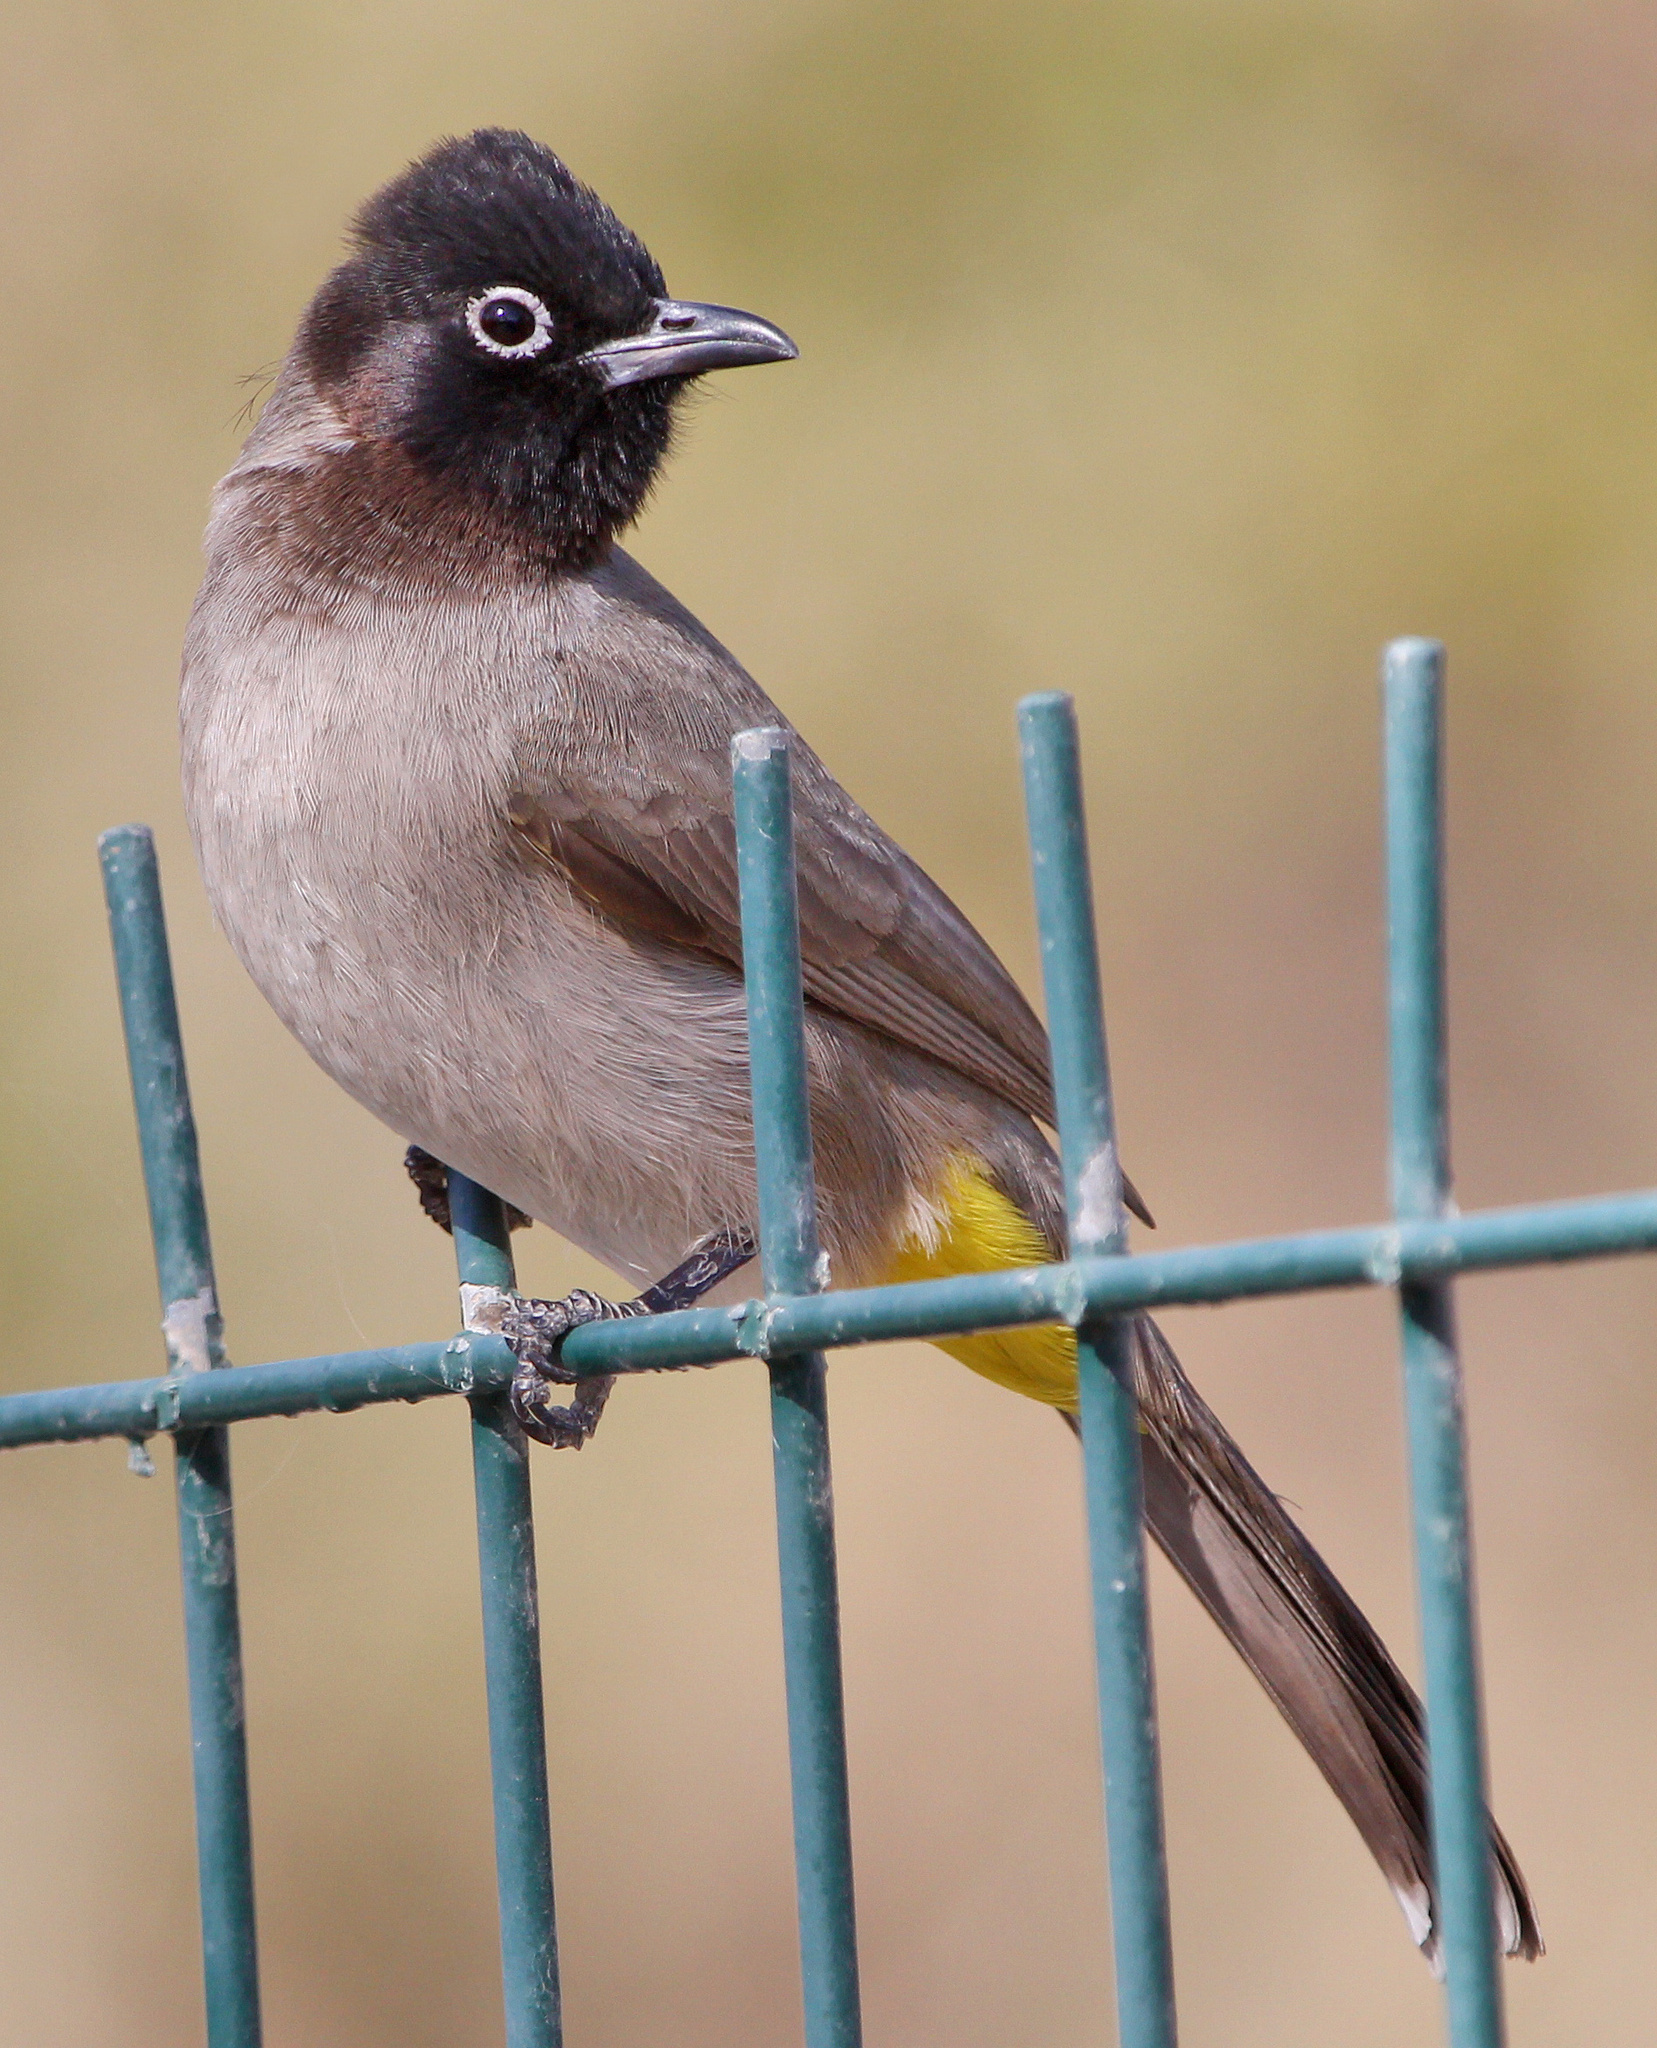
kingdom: Animalia
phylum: Chordata
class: Aves
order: Passeriformes
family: Pycnonotidae
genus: Pycnonotus
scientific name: Pycnonotus xanthopygos
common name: White-spectacled bulbul
